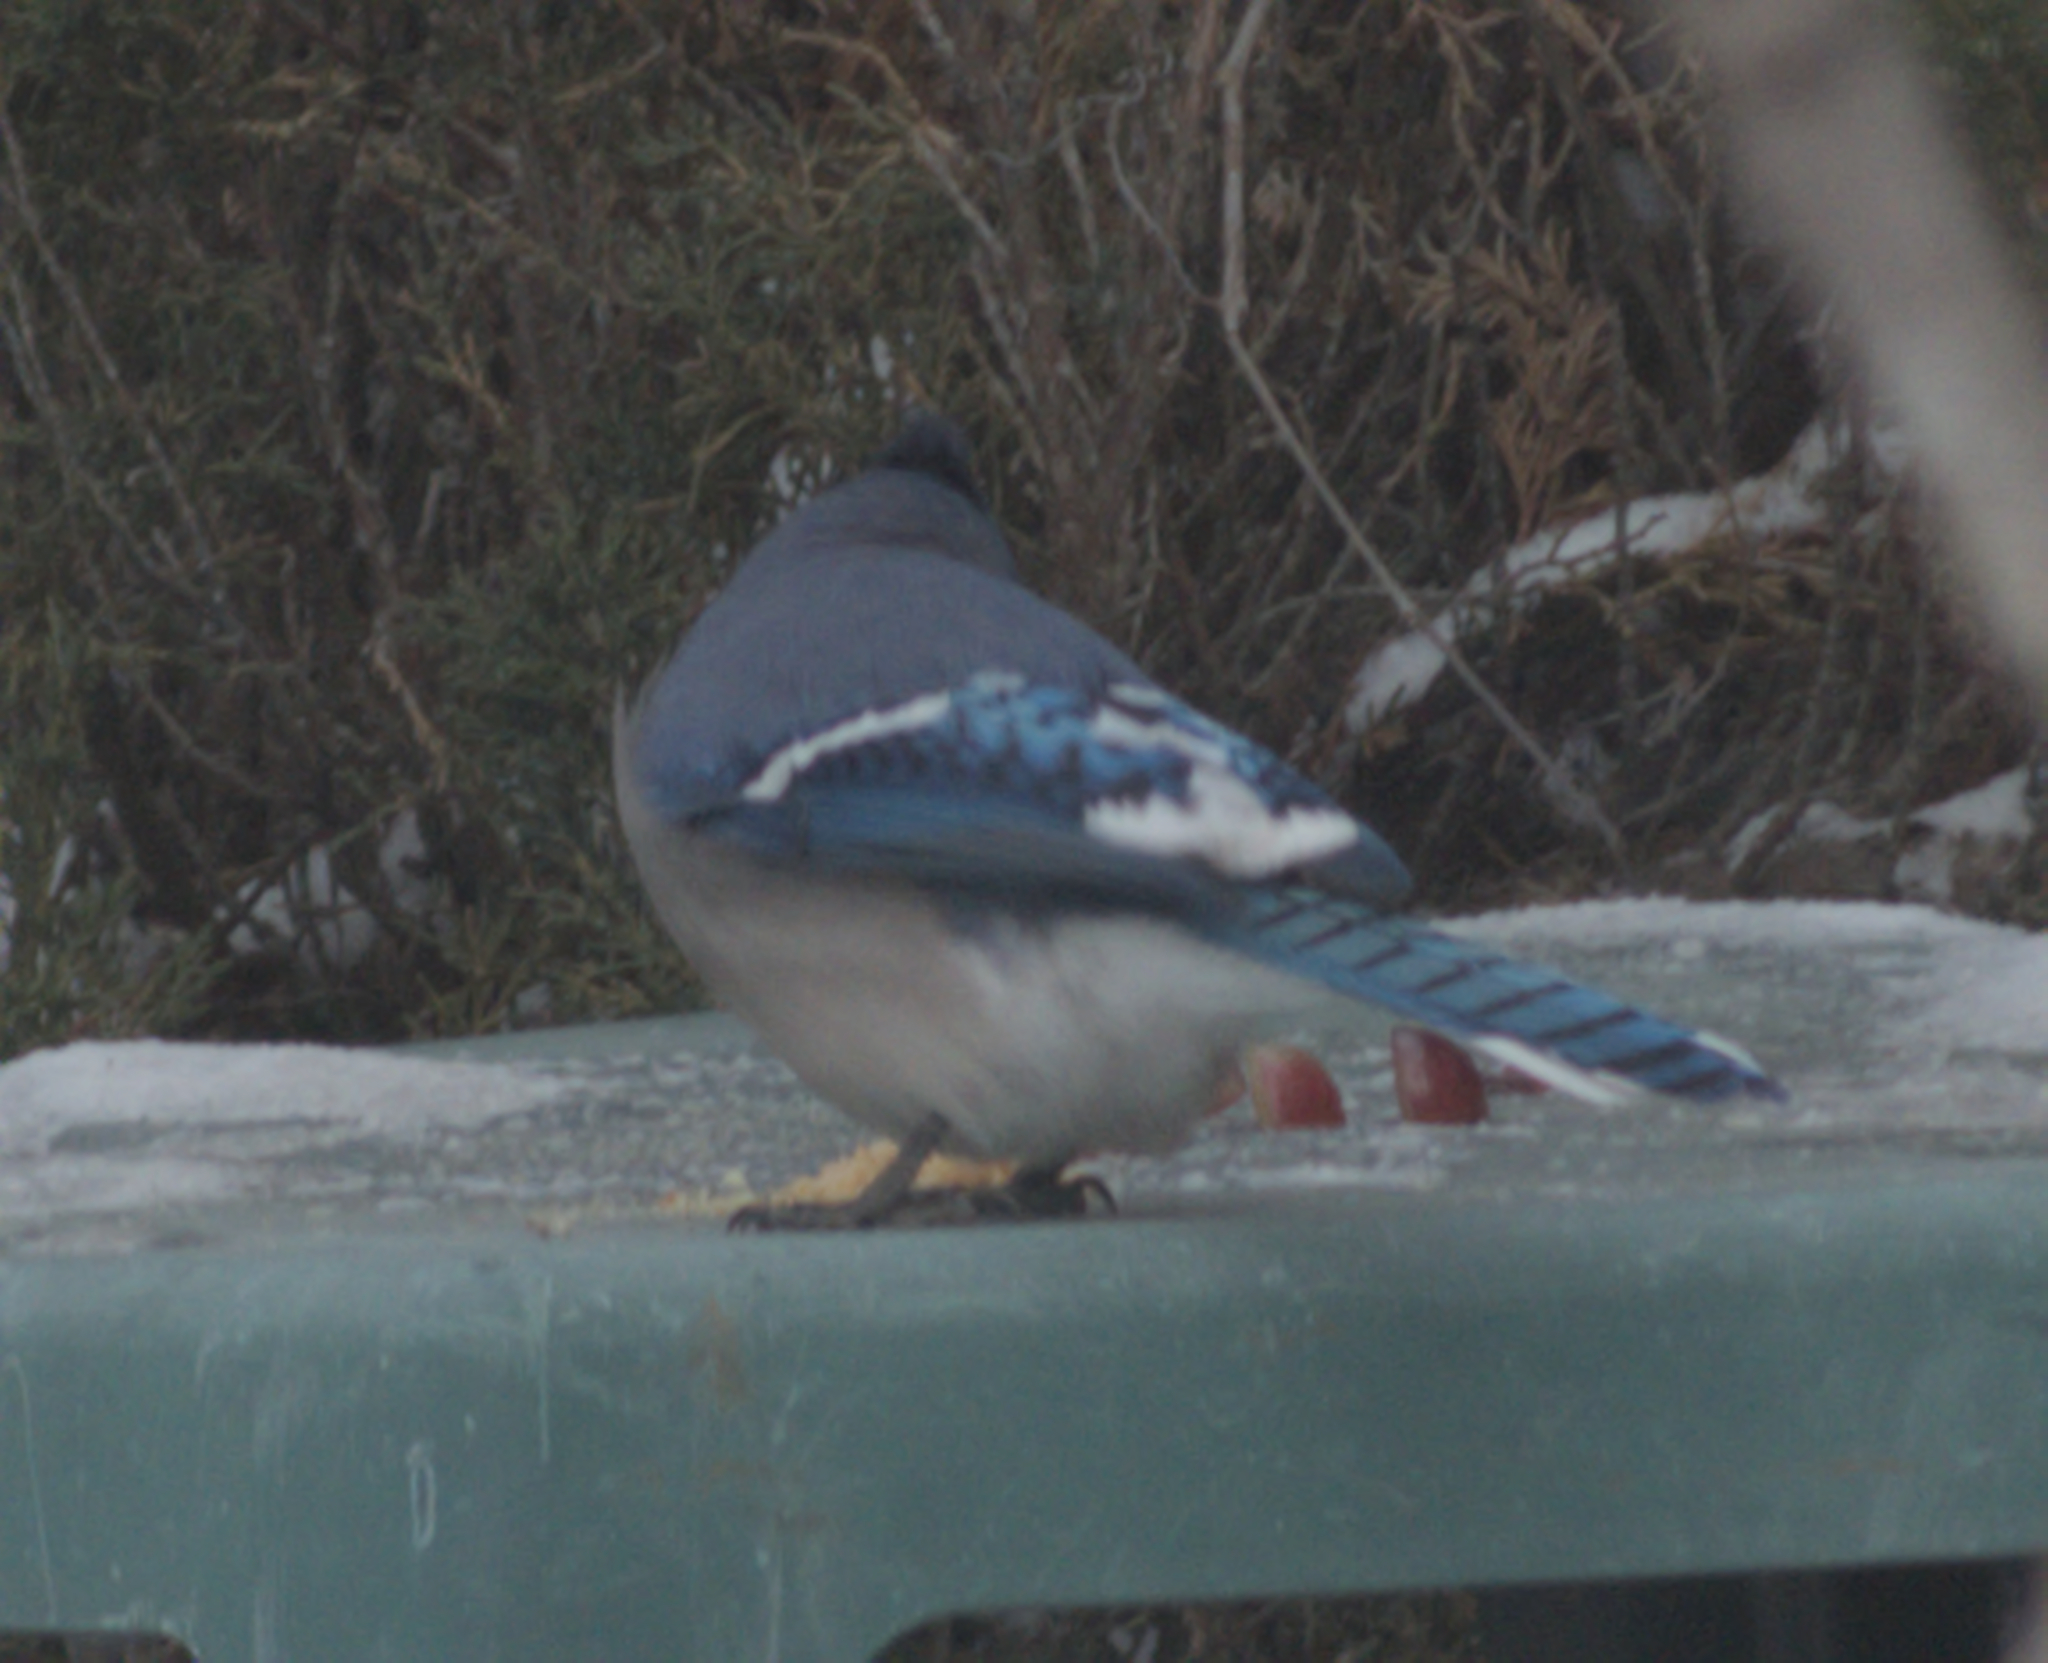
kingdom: Animalia
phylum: Chordata
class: Aves
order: Passeriformes
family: Corvidae
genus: Cyanocitta
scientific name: Cyanocitta cristata
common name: Blue jay
